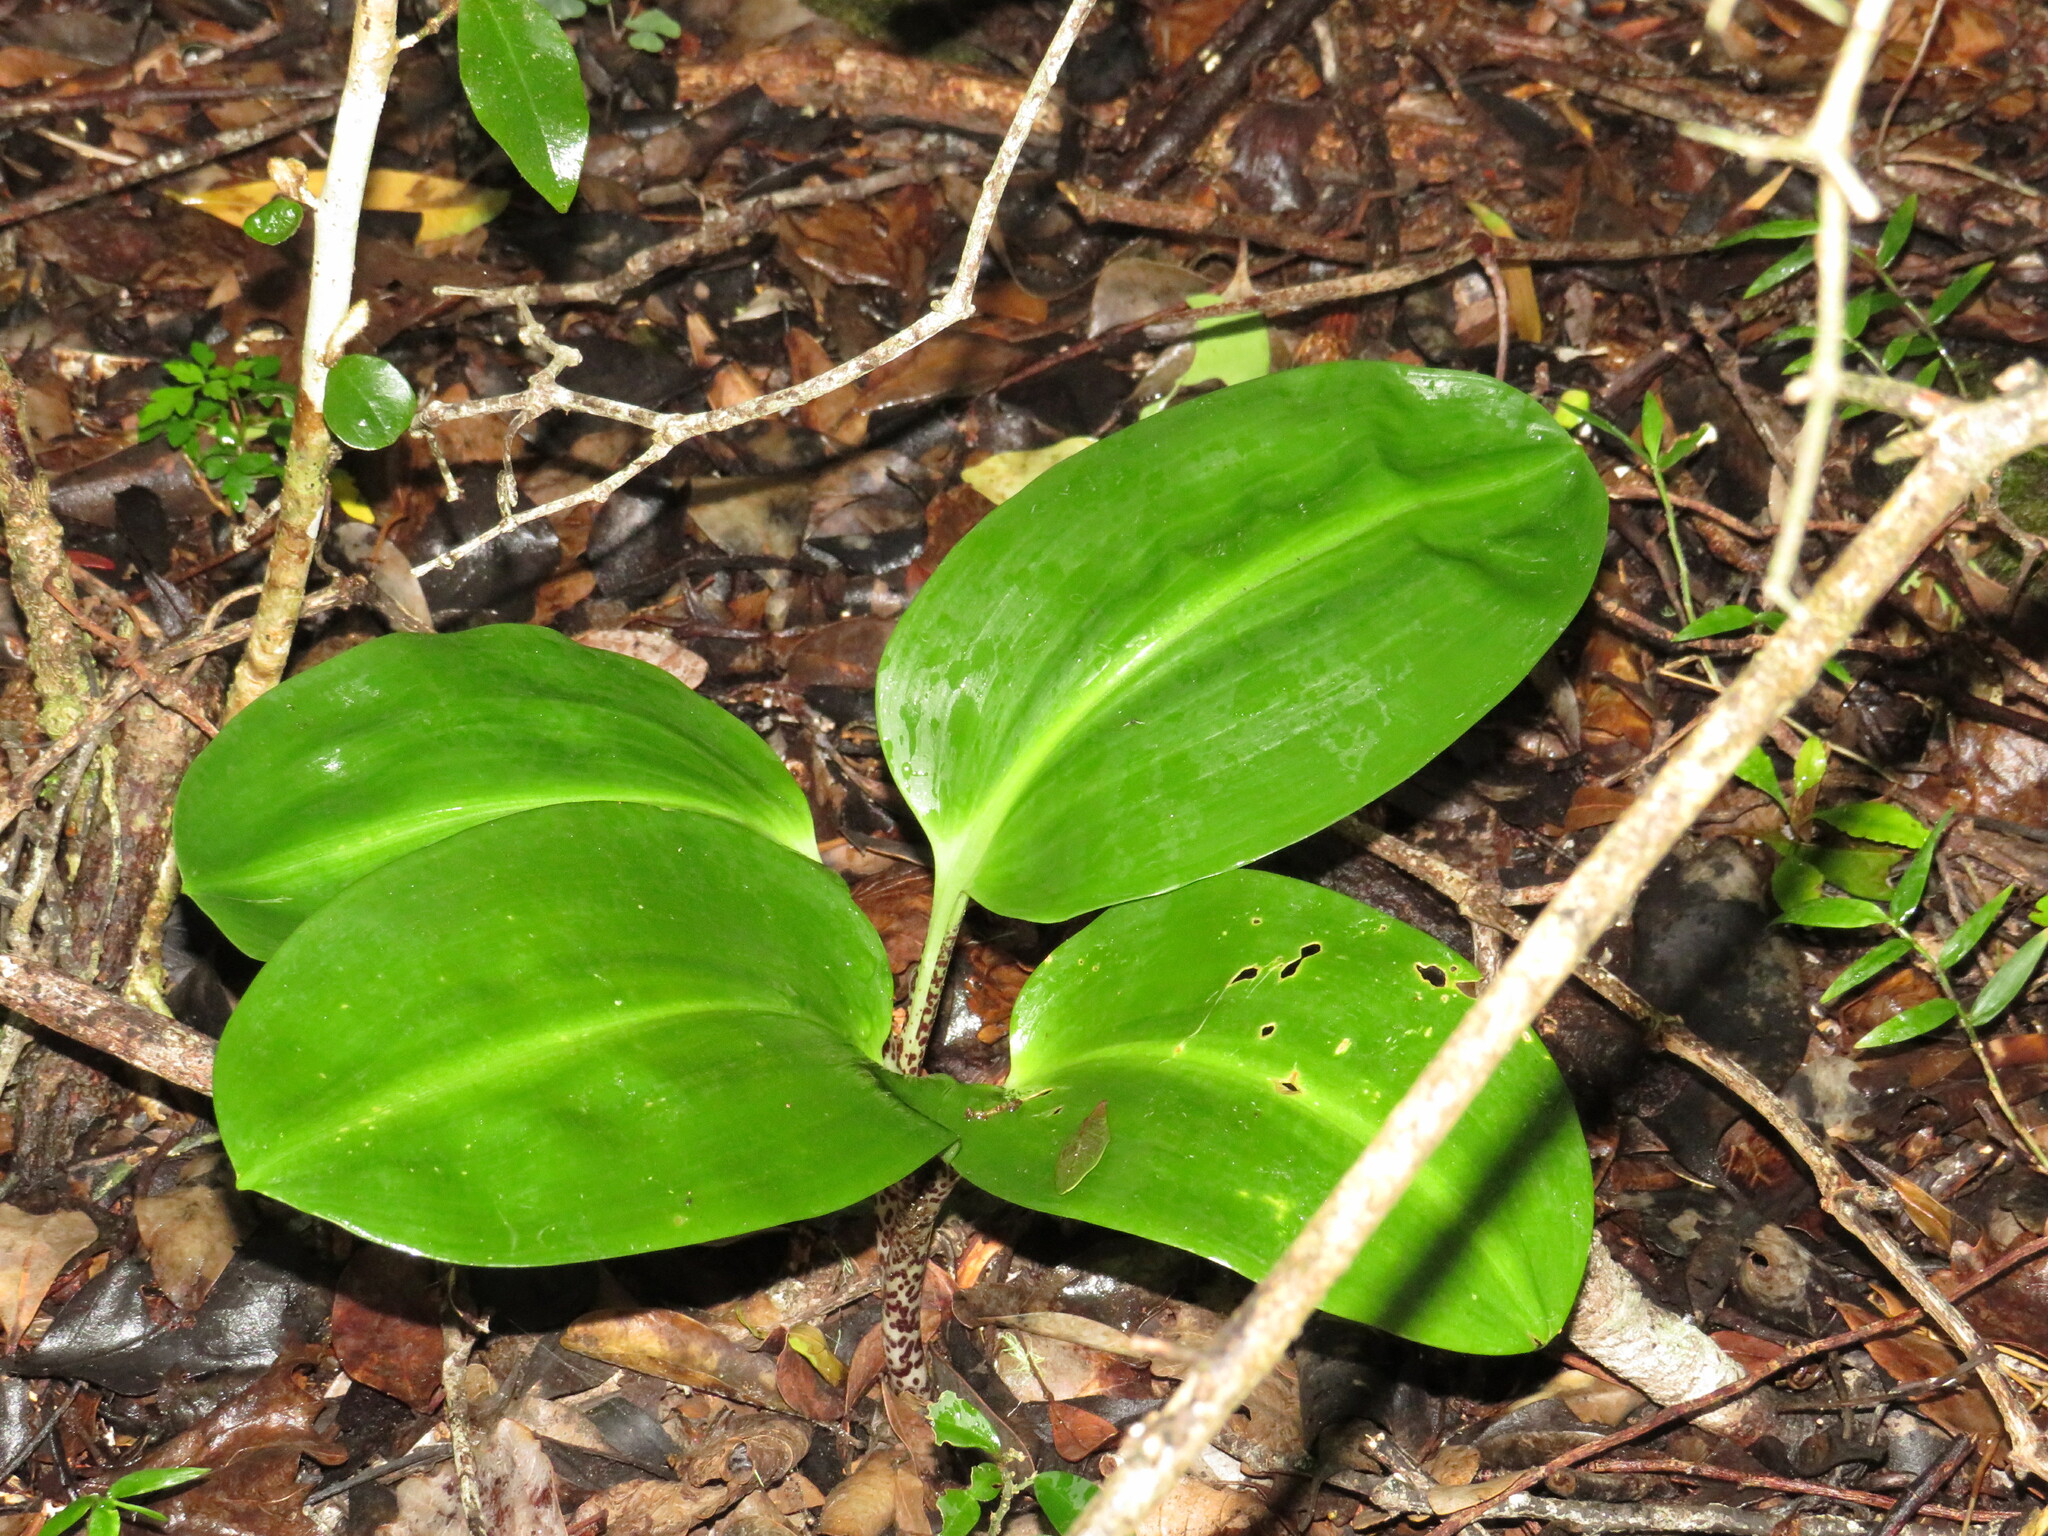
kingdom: Plantae
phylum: Tracheophyta
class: Liliopsida
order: Asparagales
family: Amaryllidaceae
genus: Scadoxus
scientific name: Scadoxus puniceus
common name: Royal-paintbrush
